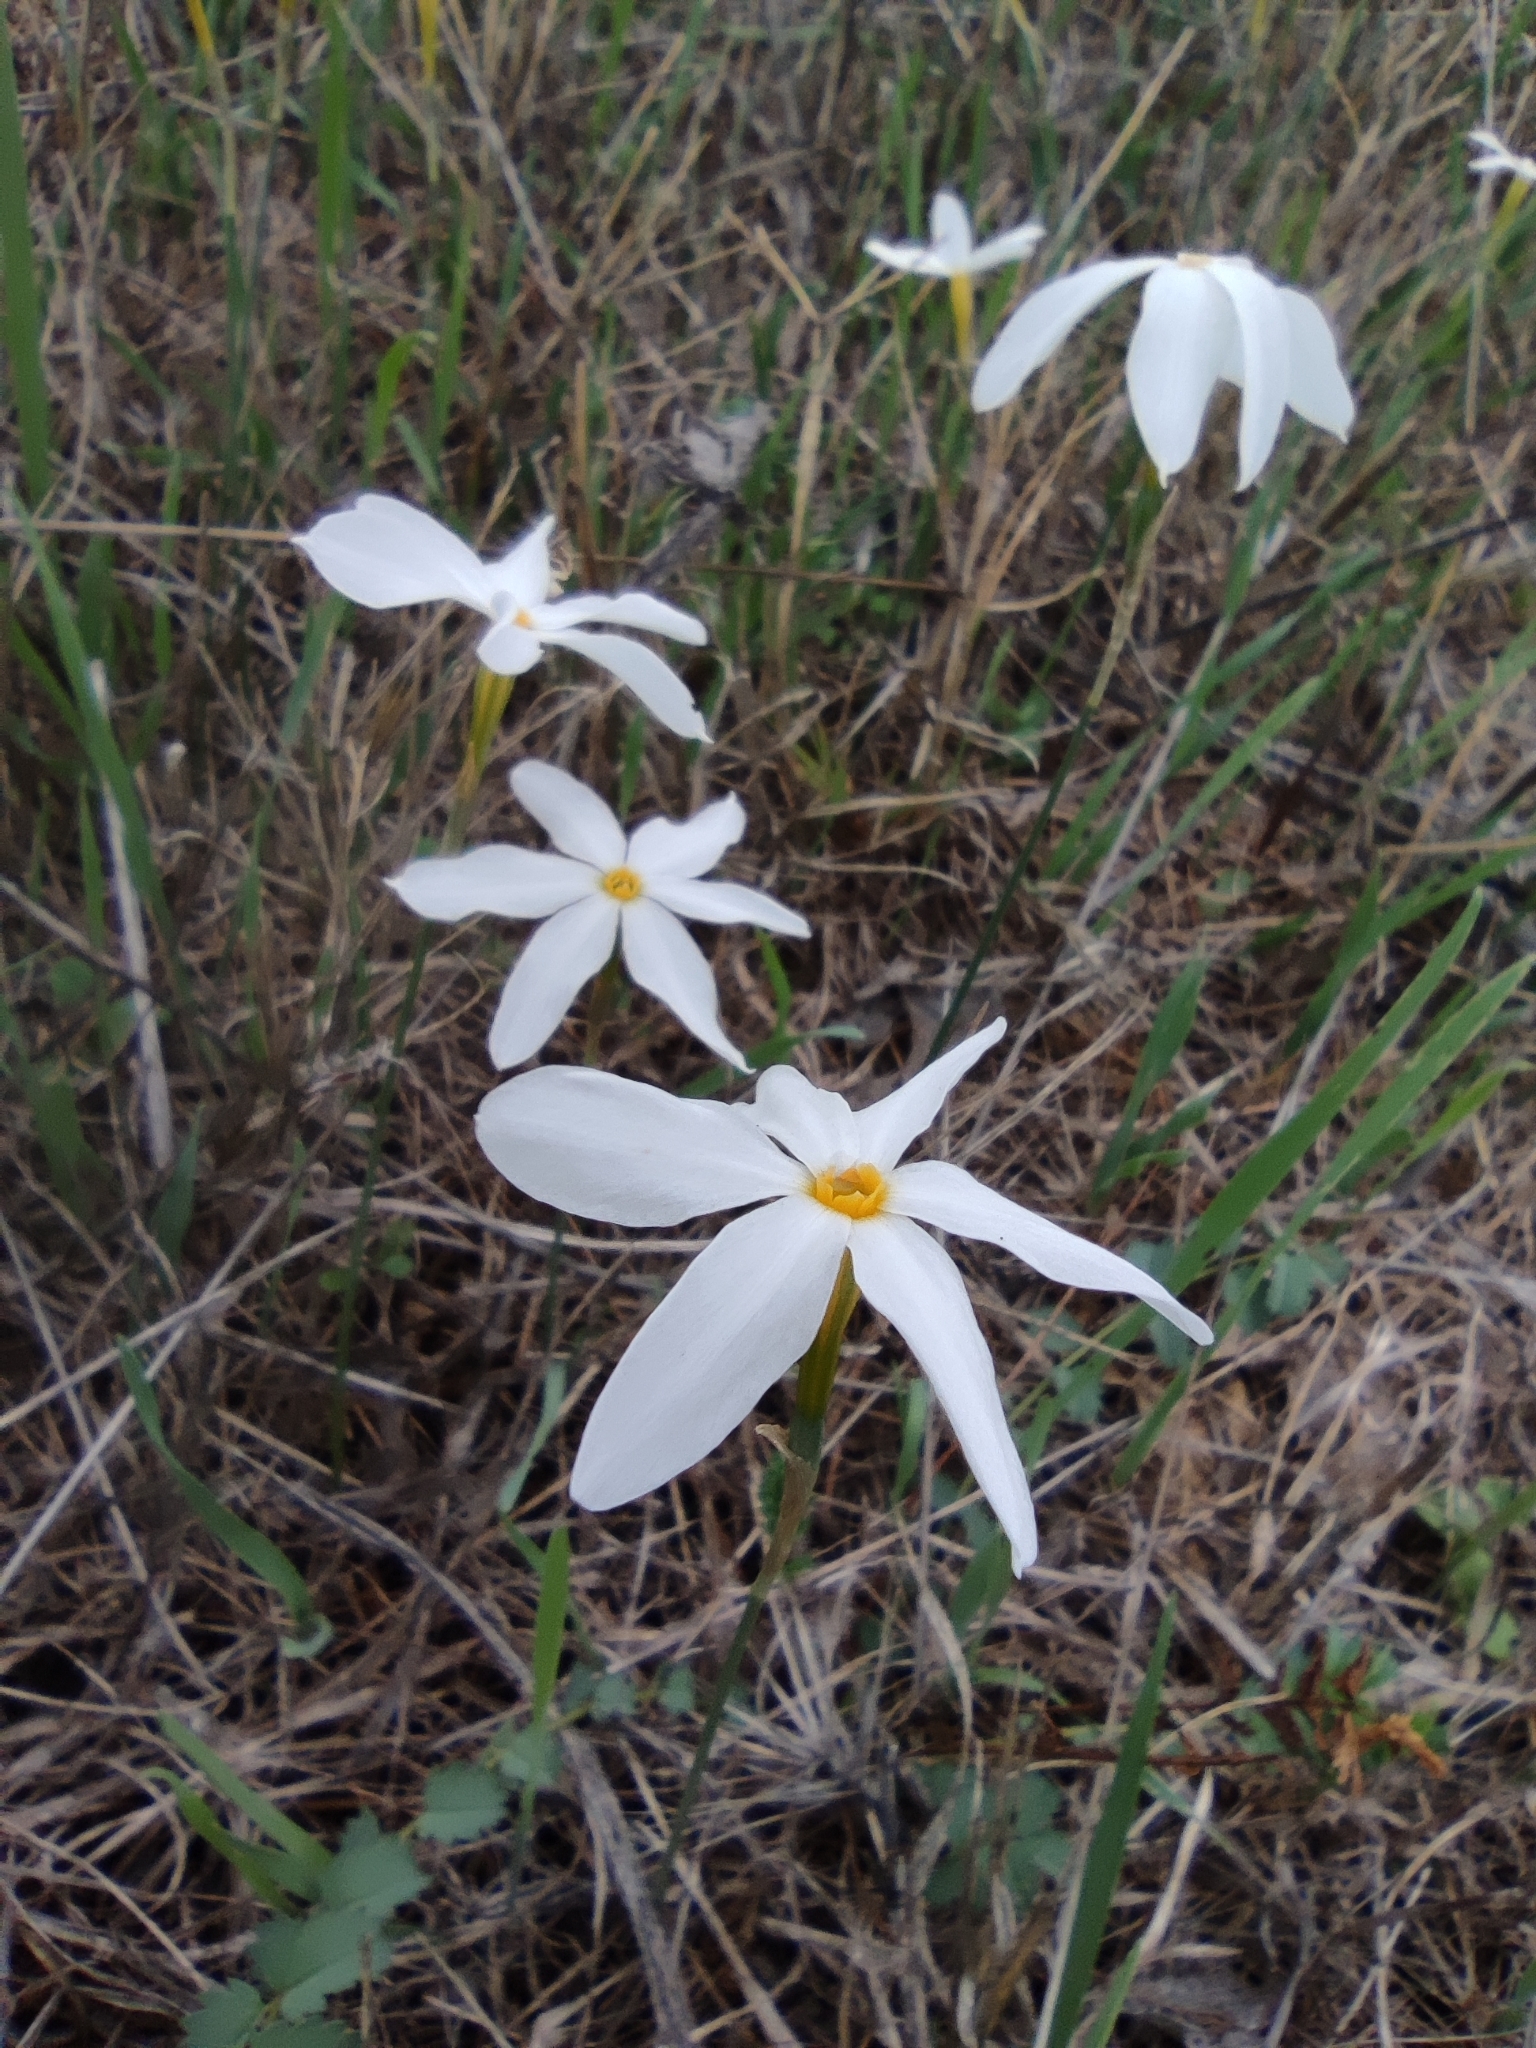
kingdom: Plantae
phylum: Tracheophyta
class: Liliopsida
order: Asparagales
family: Amaryllidaceae
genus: Narcissus
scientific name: Narcissus serotinus
